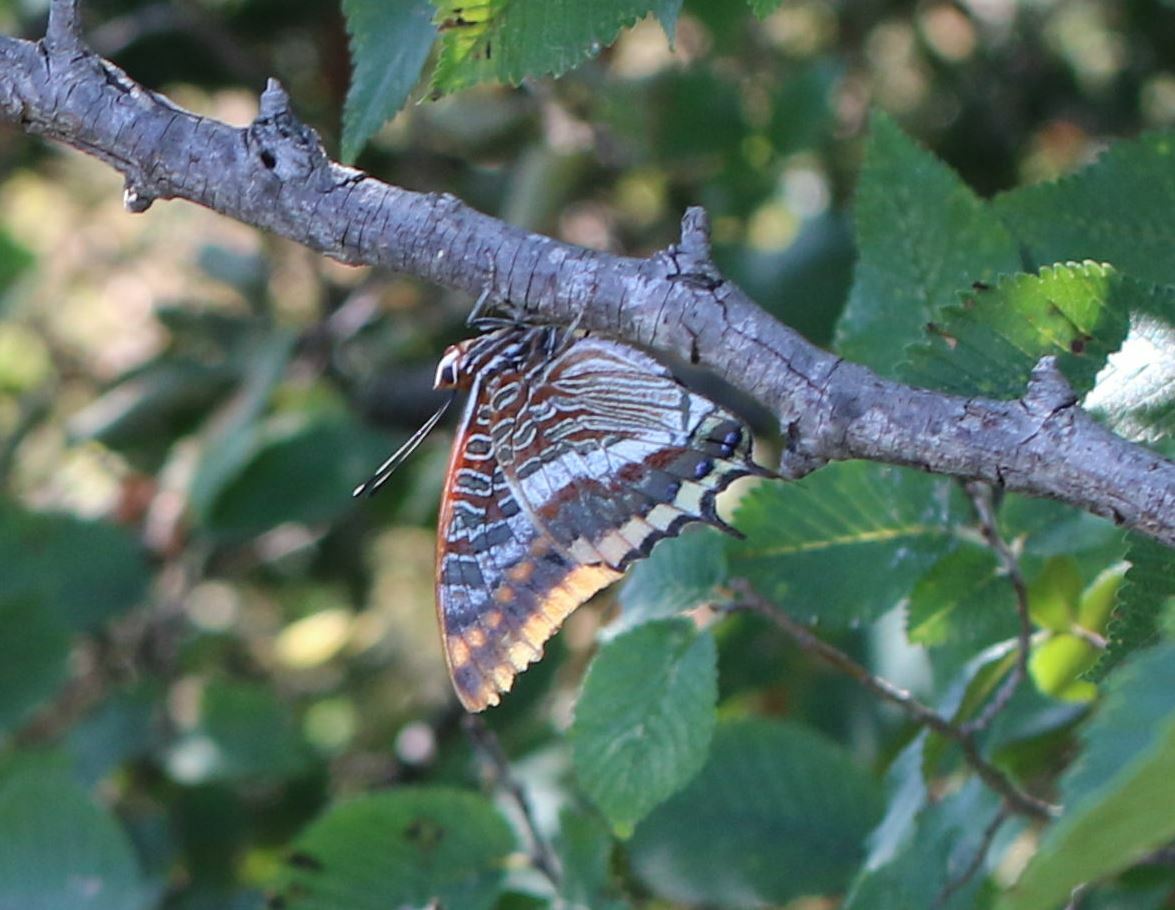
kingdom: Animalia
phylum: Arthropoda
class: Insecta
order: Lepidoptera
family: Nymphalidae
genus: Charaxes
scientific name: Charaxes jasius
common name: Two tailed pasha
